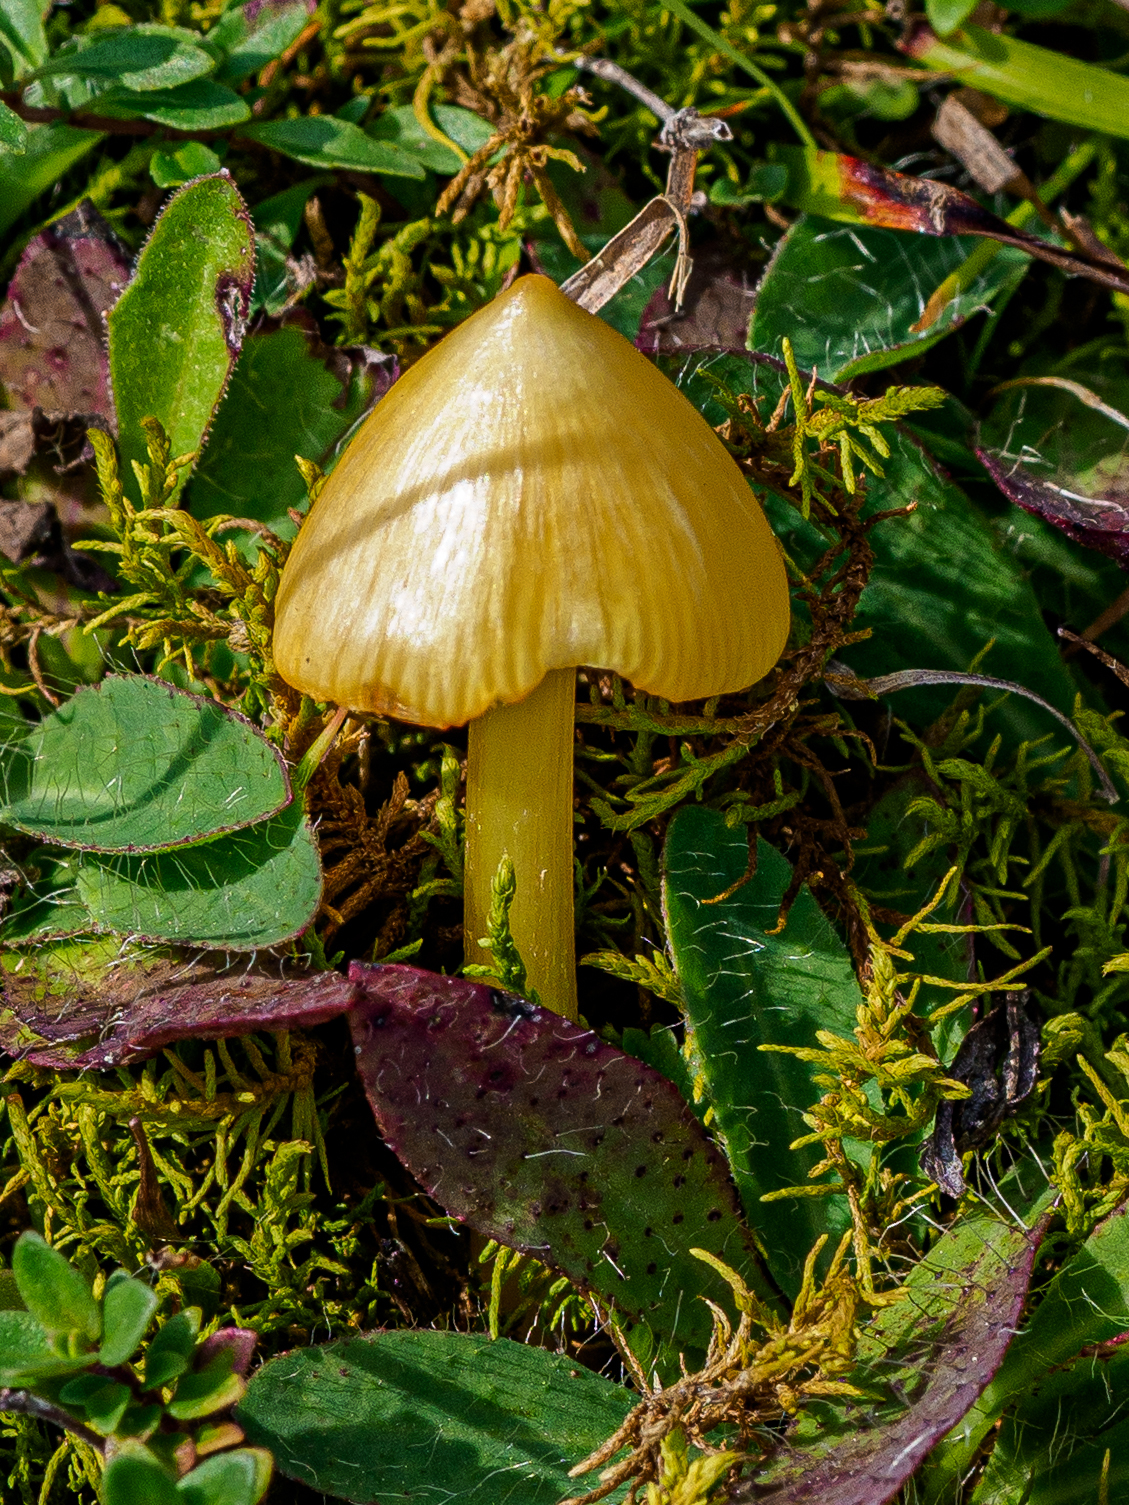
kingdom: Fungi
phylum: Basidiomycota
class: Agaricomycetes
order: Agaricales
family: Hygrophoraceae
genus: Hygrocybe
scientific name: Hygrocybe acutoconica
